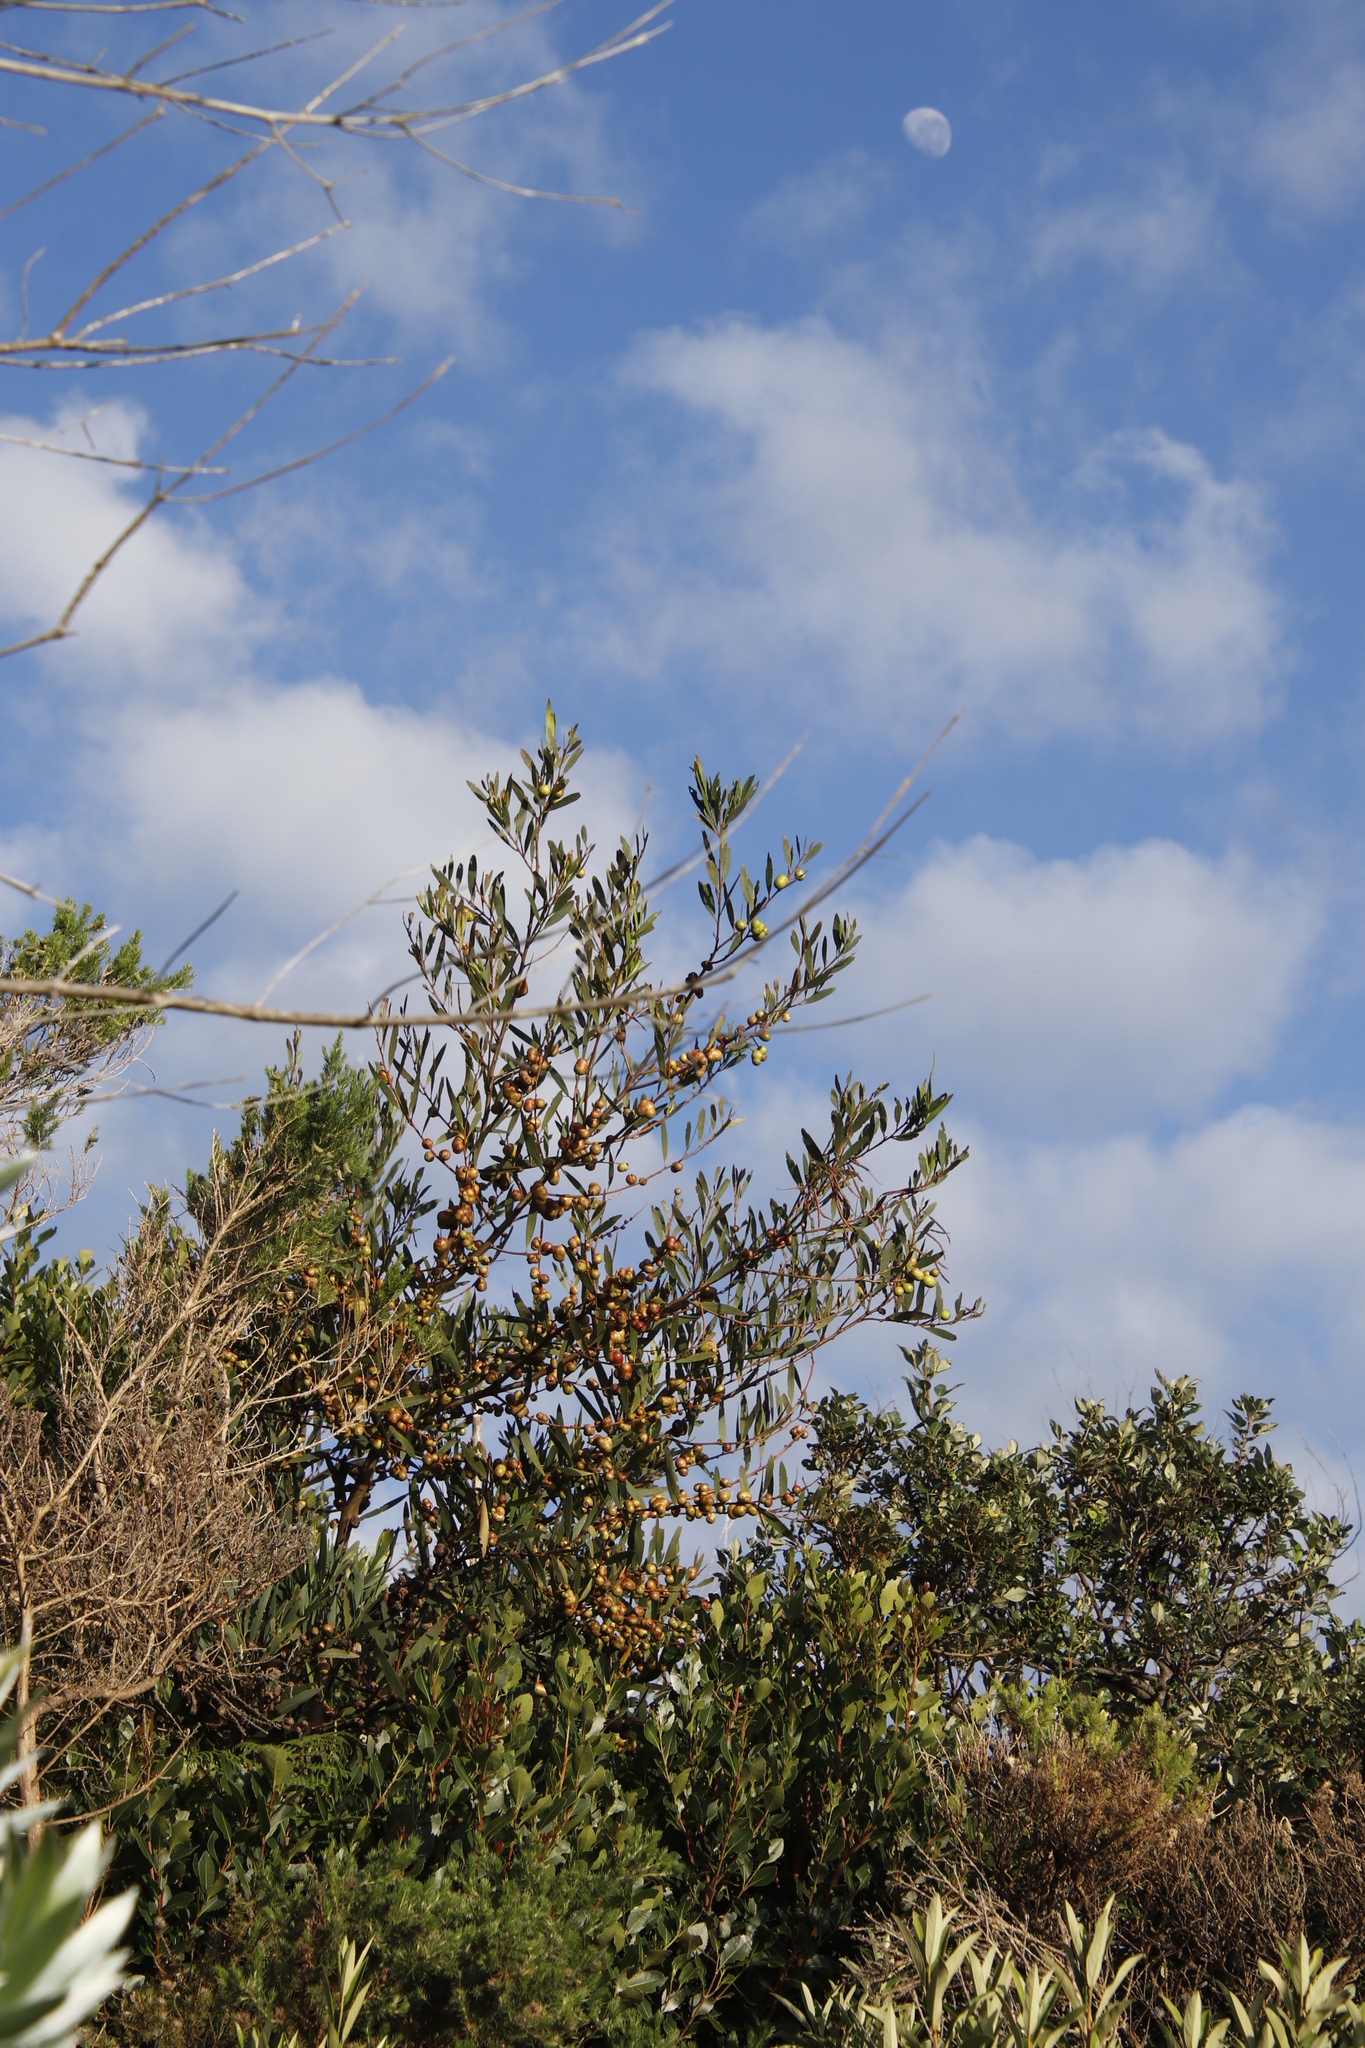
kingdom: Plantae
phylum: Tracheophyta
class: Magnoliopsida
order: Fabales
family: Fabaceae
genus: Acacia
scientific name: Acacia longifolia
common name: Sydney golden wattle
